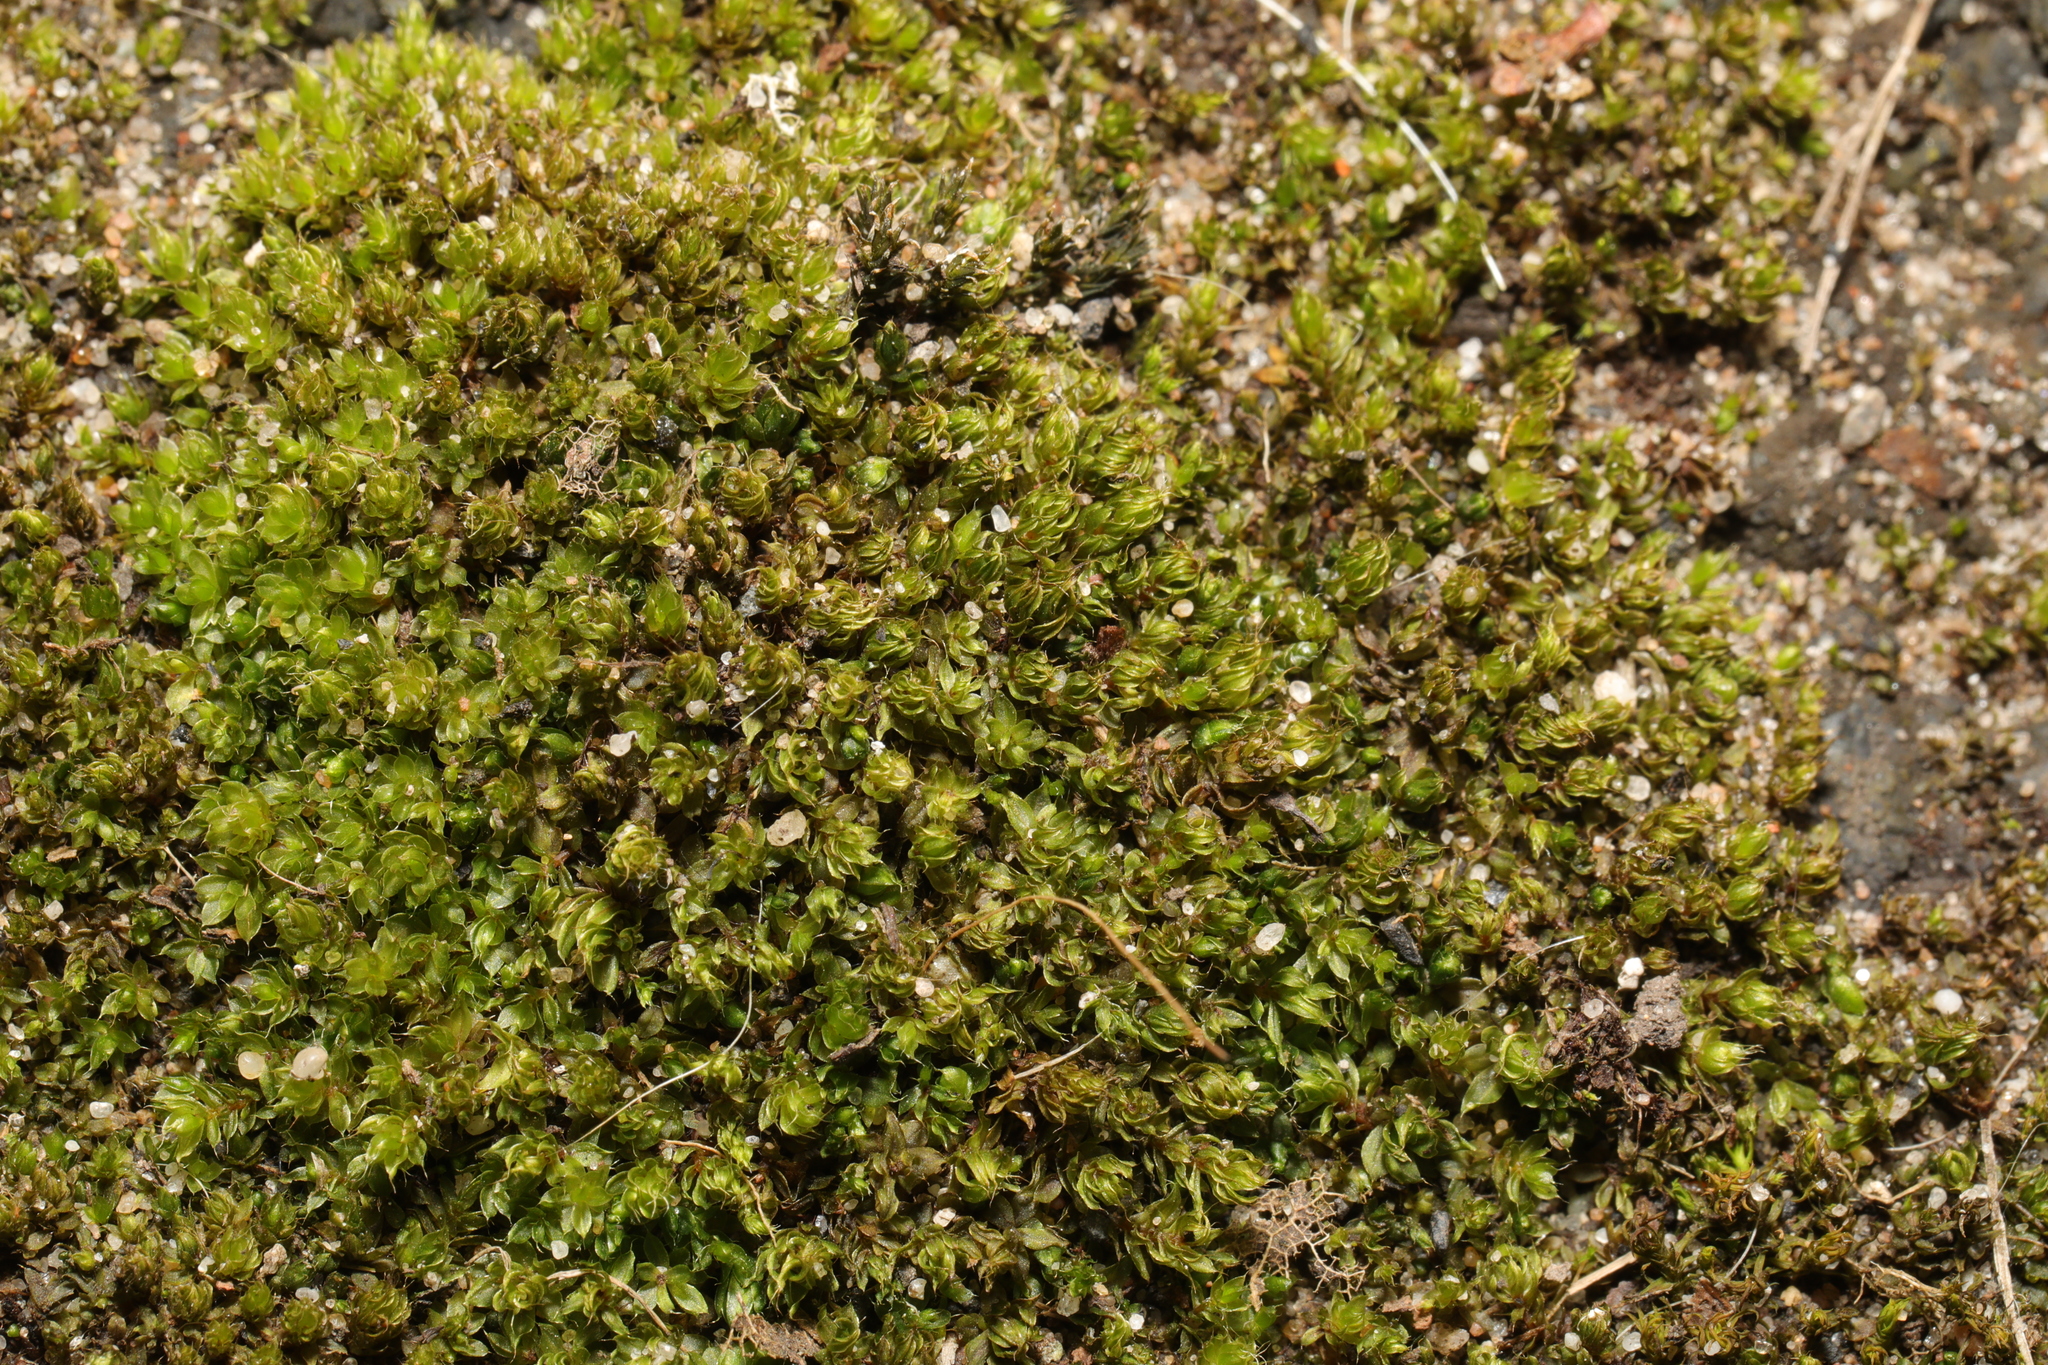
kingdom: Plantae
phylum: Bryophyta
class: Bryopsida
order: Bryales
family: Bryaceae
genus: Rosulabryum
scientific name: Rosulabryum capillare
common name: Capillary thread-moss
